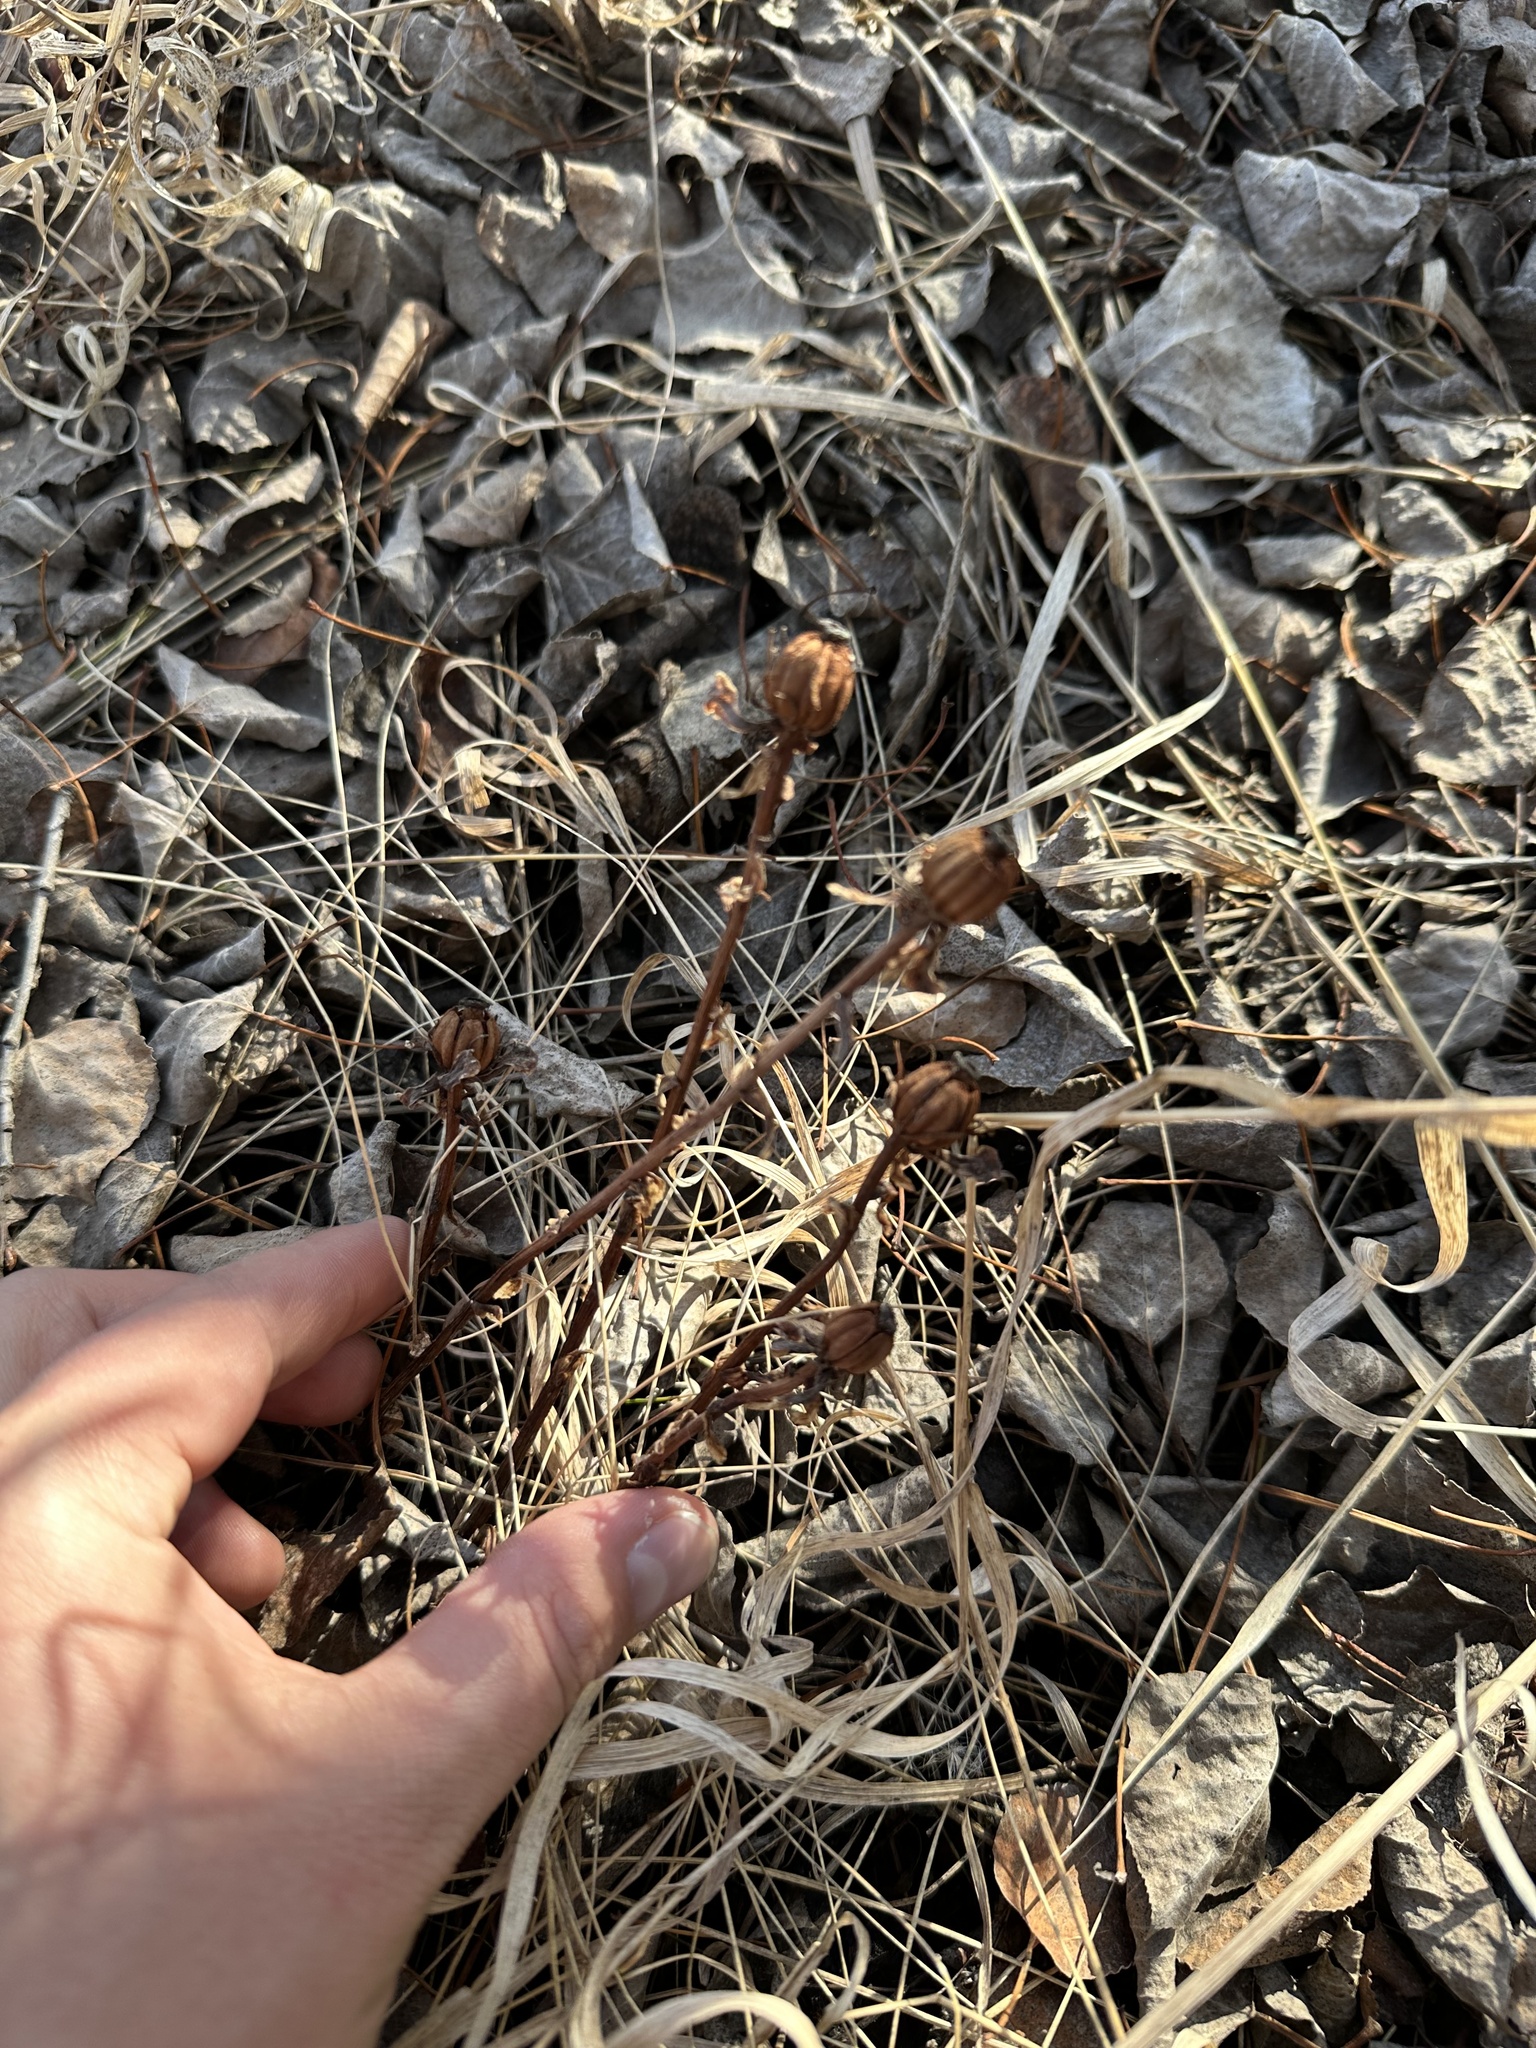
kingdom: Plantae
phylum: Tracheophyta
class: Magnoliopsida
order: Ericales
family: Ericaceae
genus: Monotropa
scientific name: Monotropa uniflora
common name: Convulsion root
